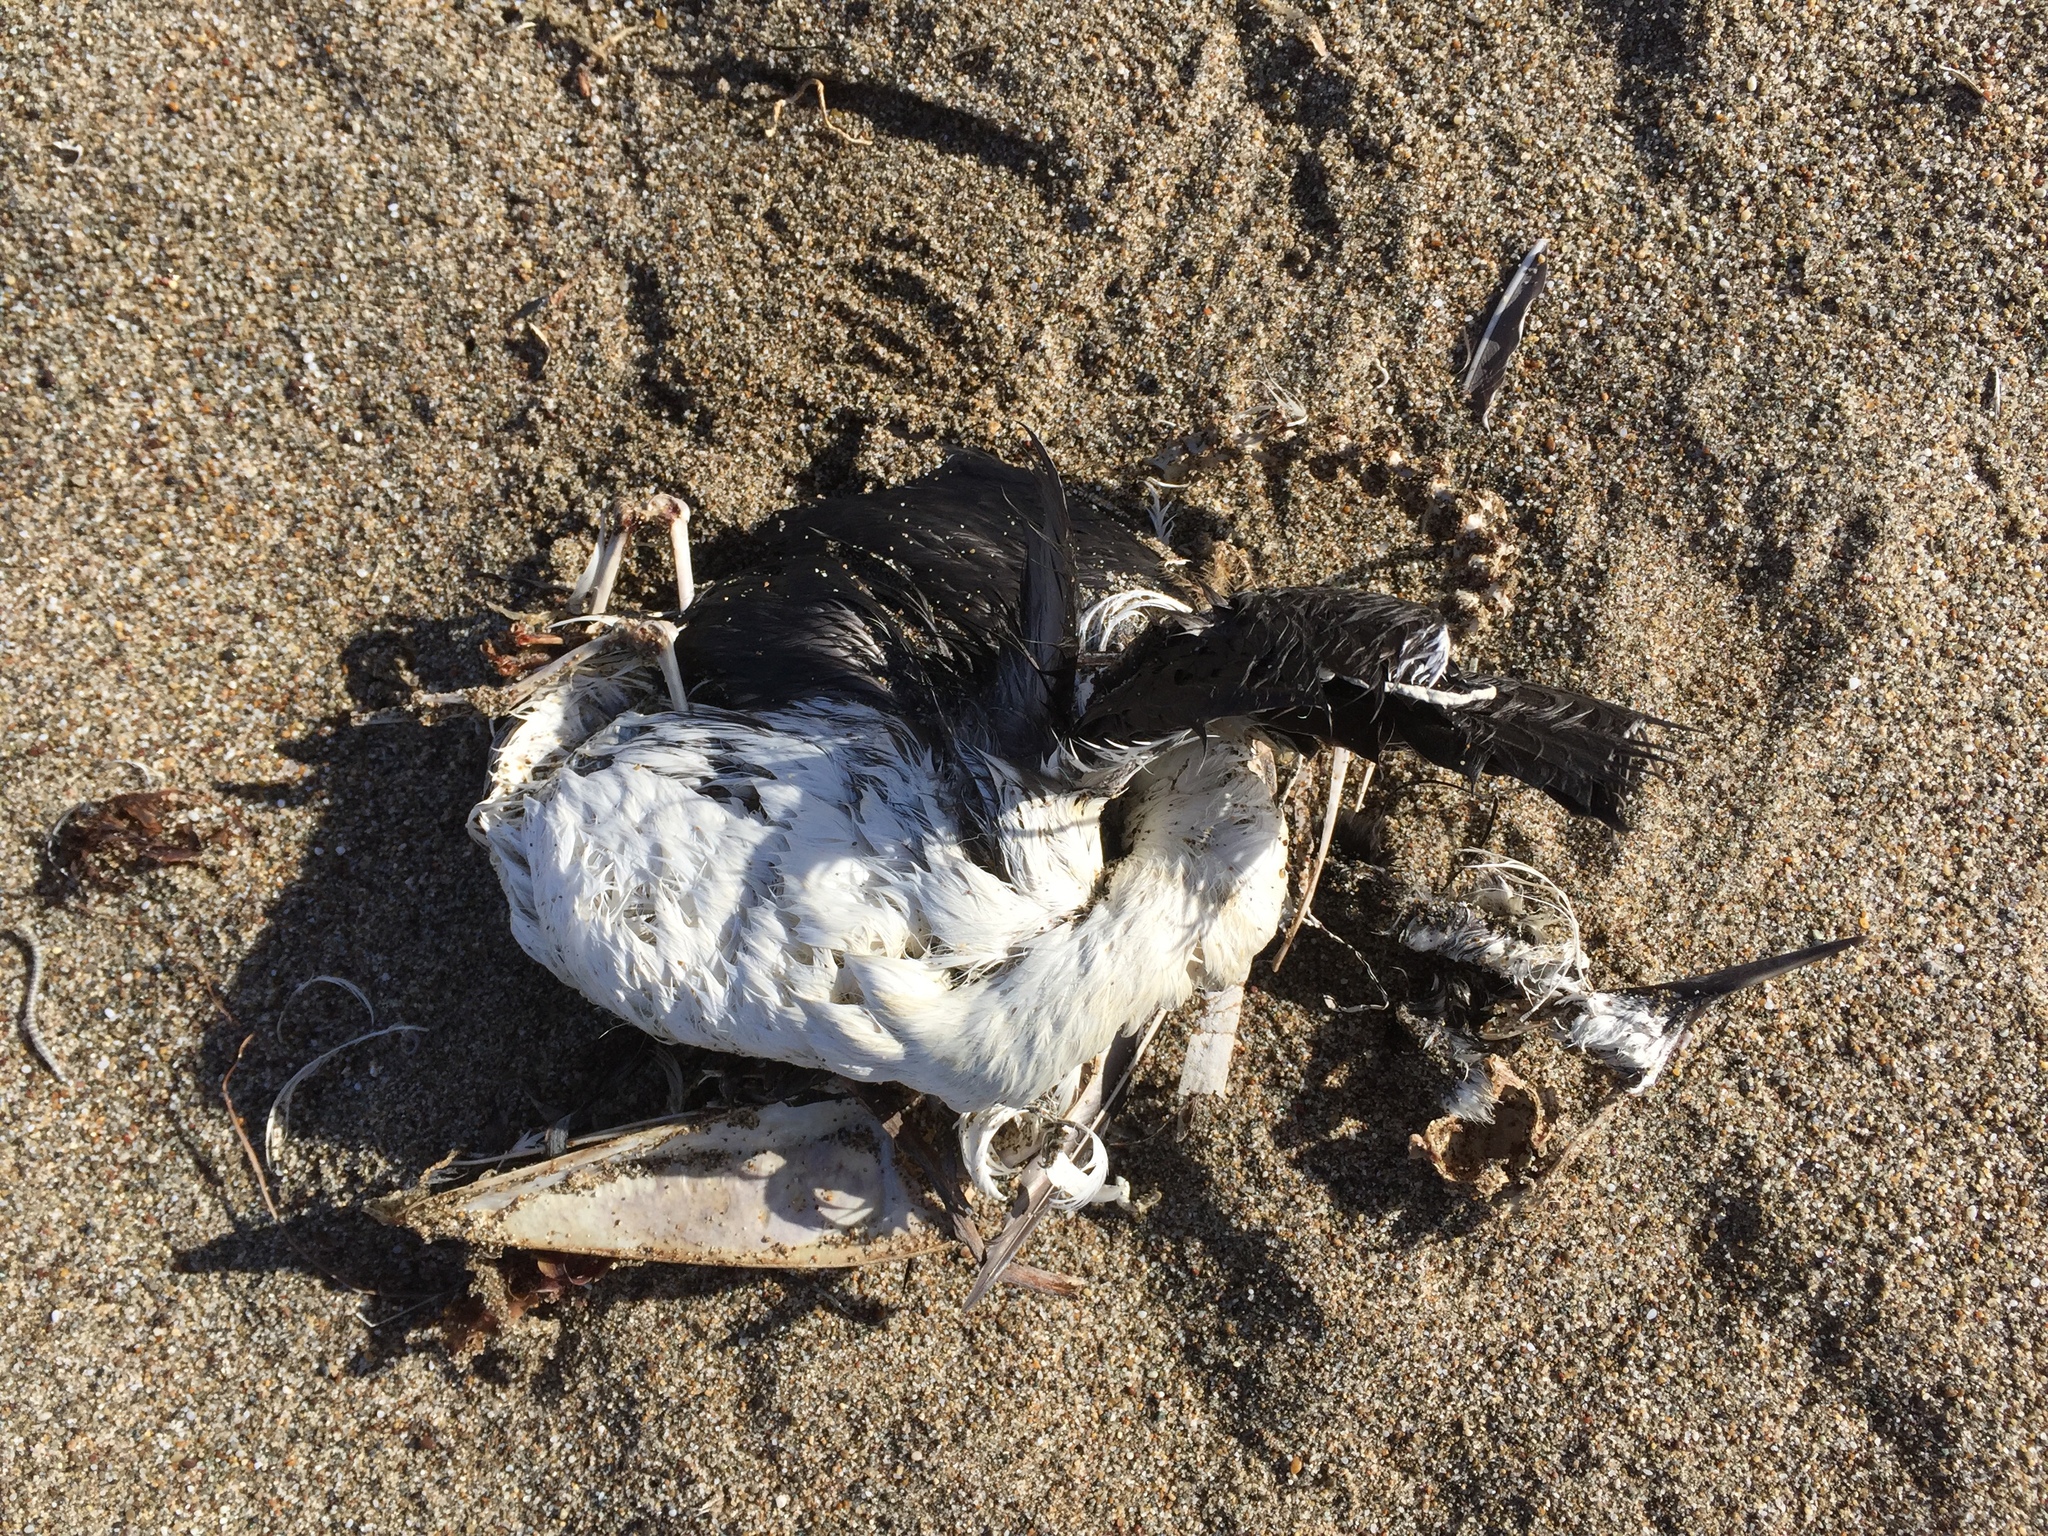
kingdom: Animalia
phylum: Chordata
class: Aves
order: Charadriiformes
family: Alcidae
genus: Uria
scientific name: Uria aalge
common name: Common murre
